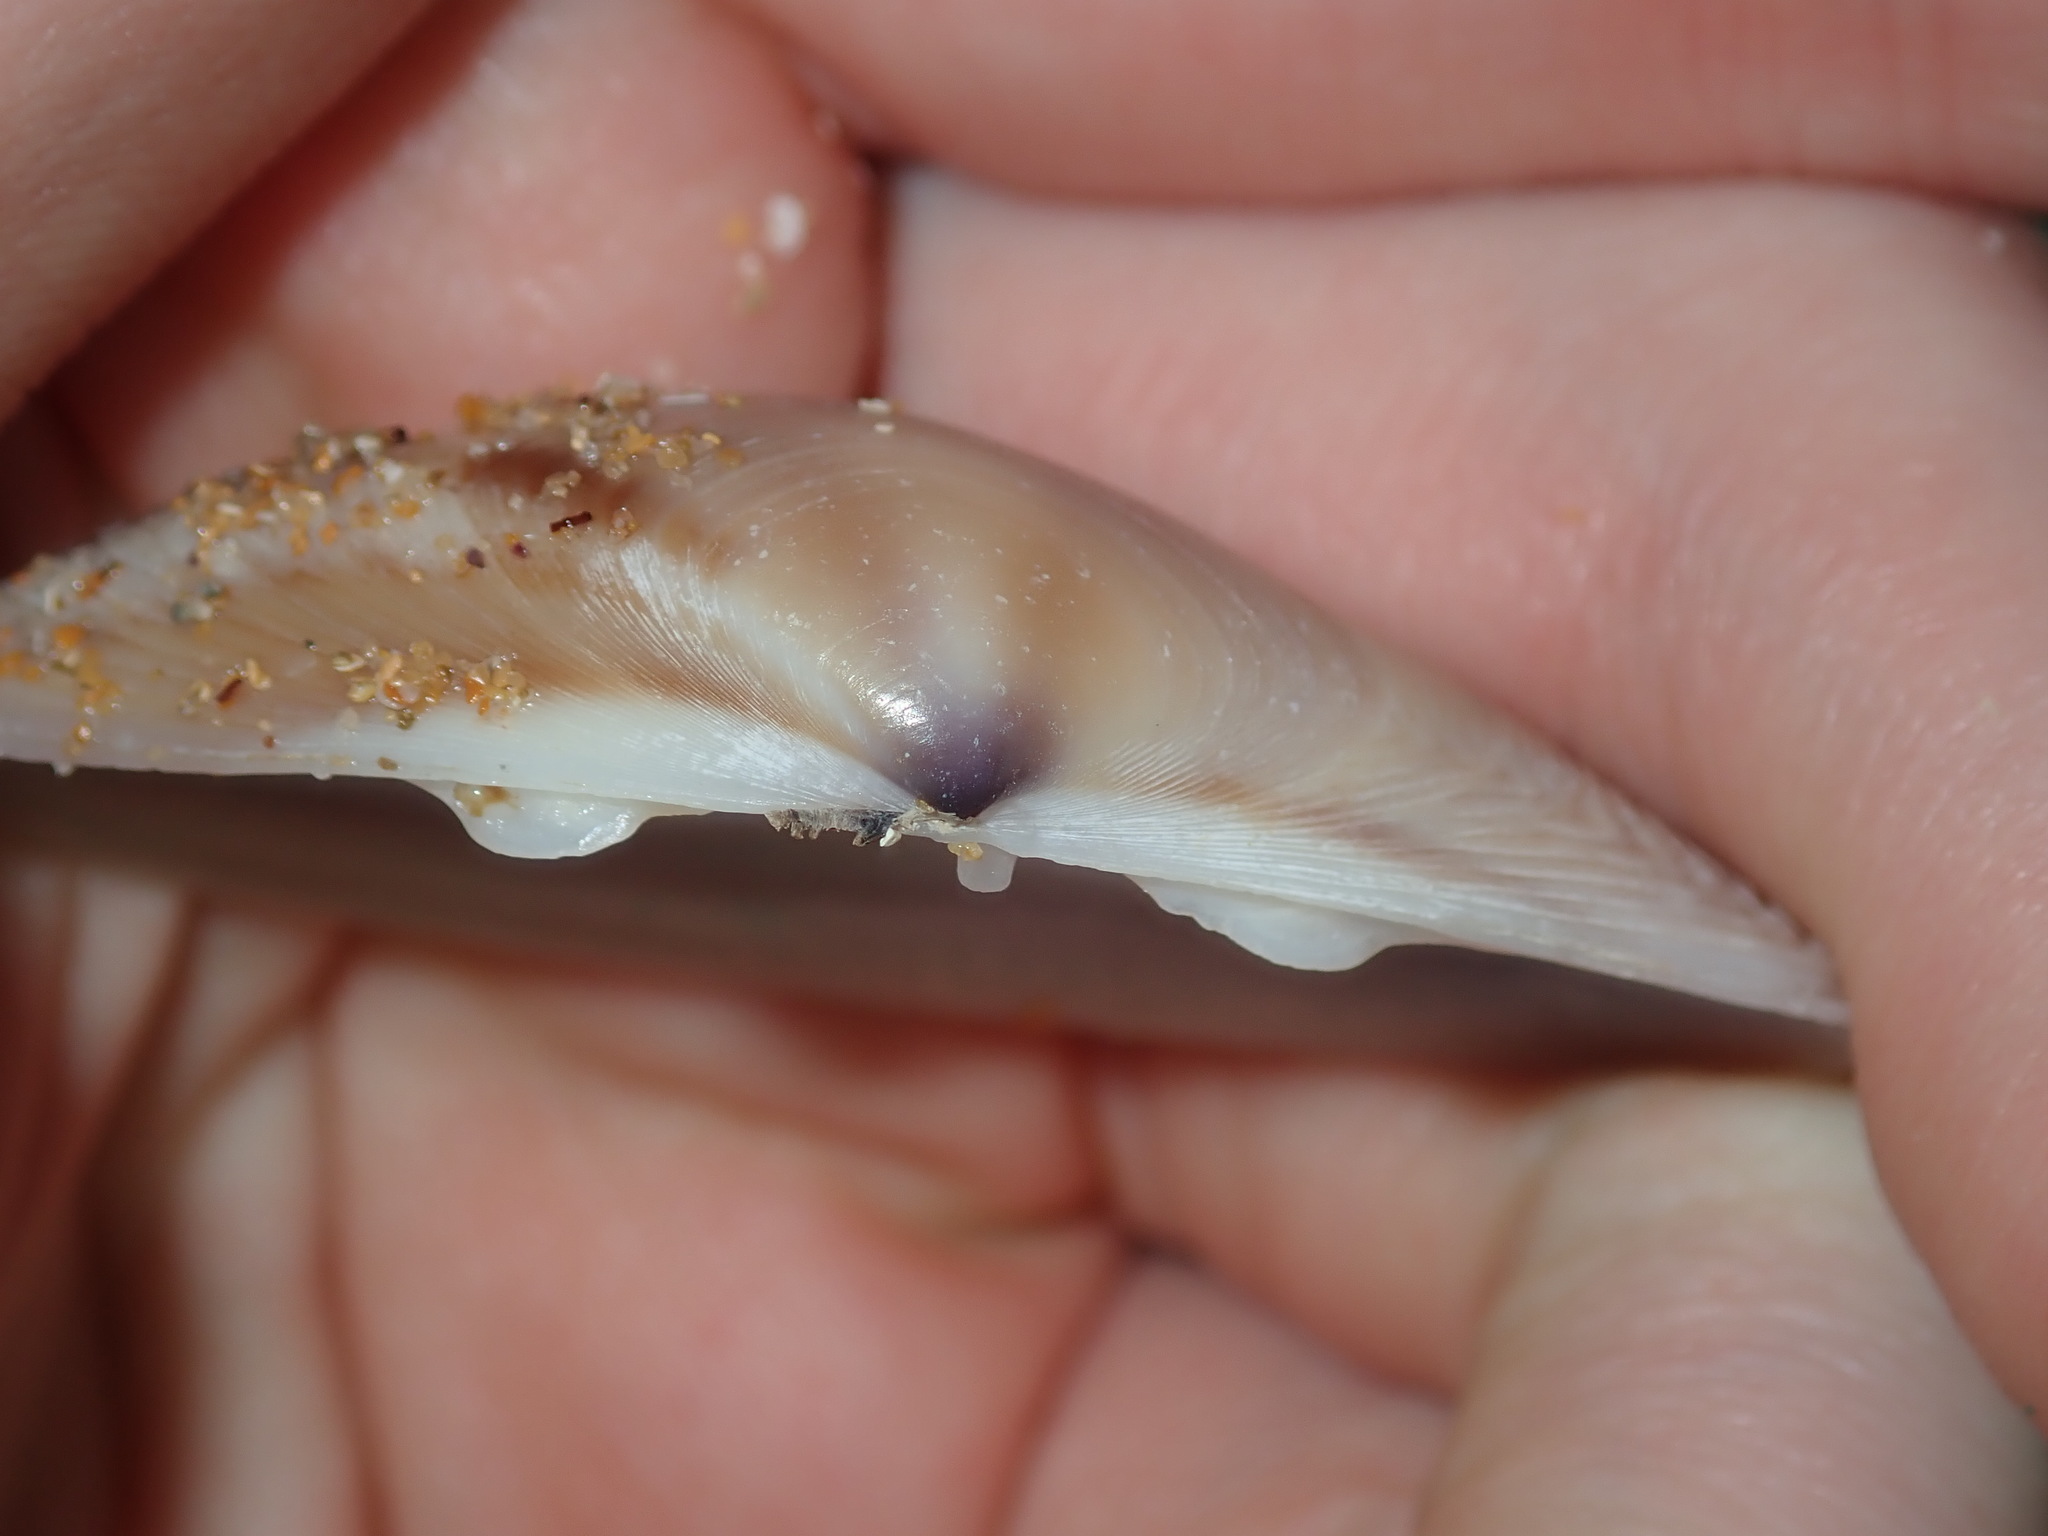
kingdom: Animalia
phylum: Mollusca
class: Bivalvia
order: Venerida
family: Mactridae
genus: Austromactra
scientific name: Austromactra rufescens
